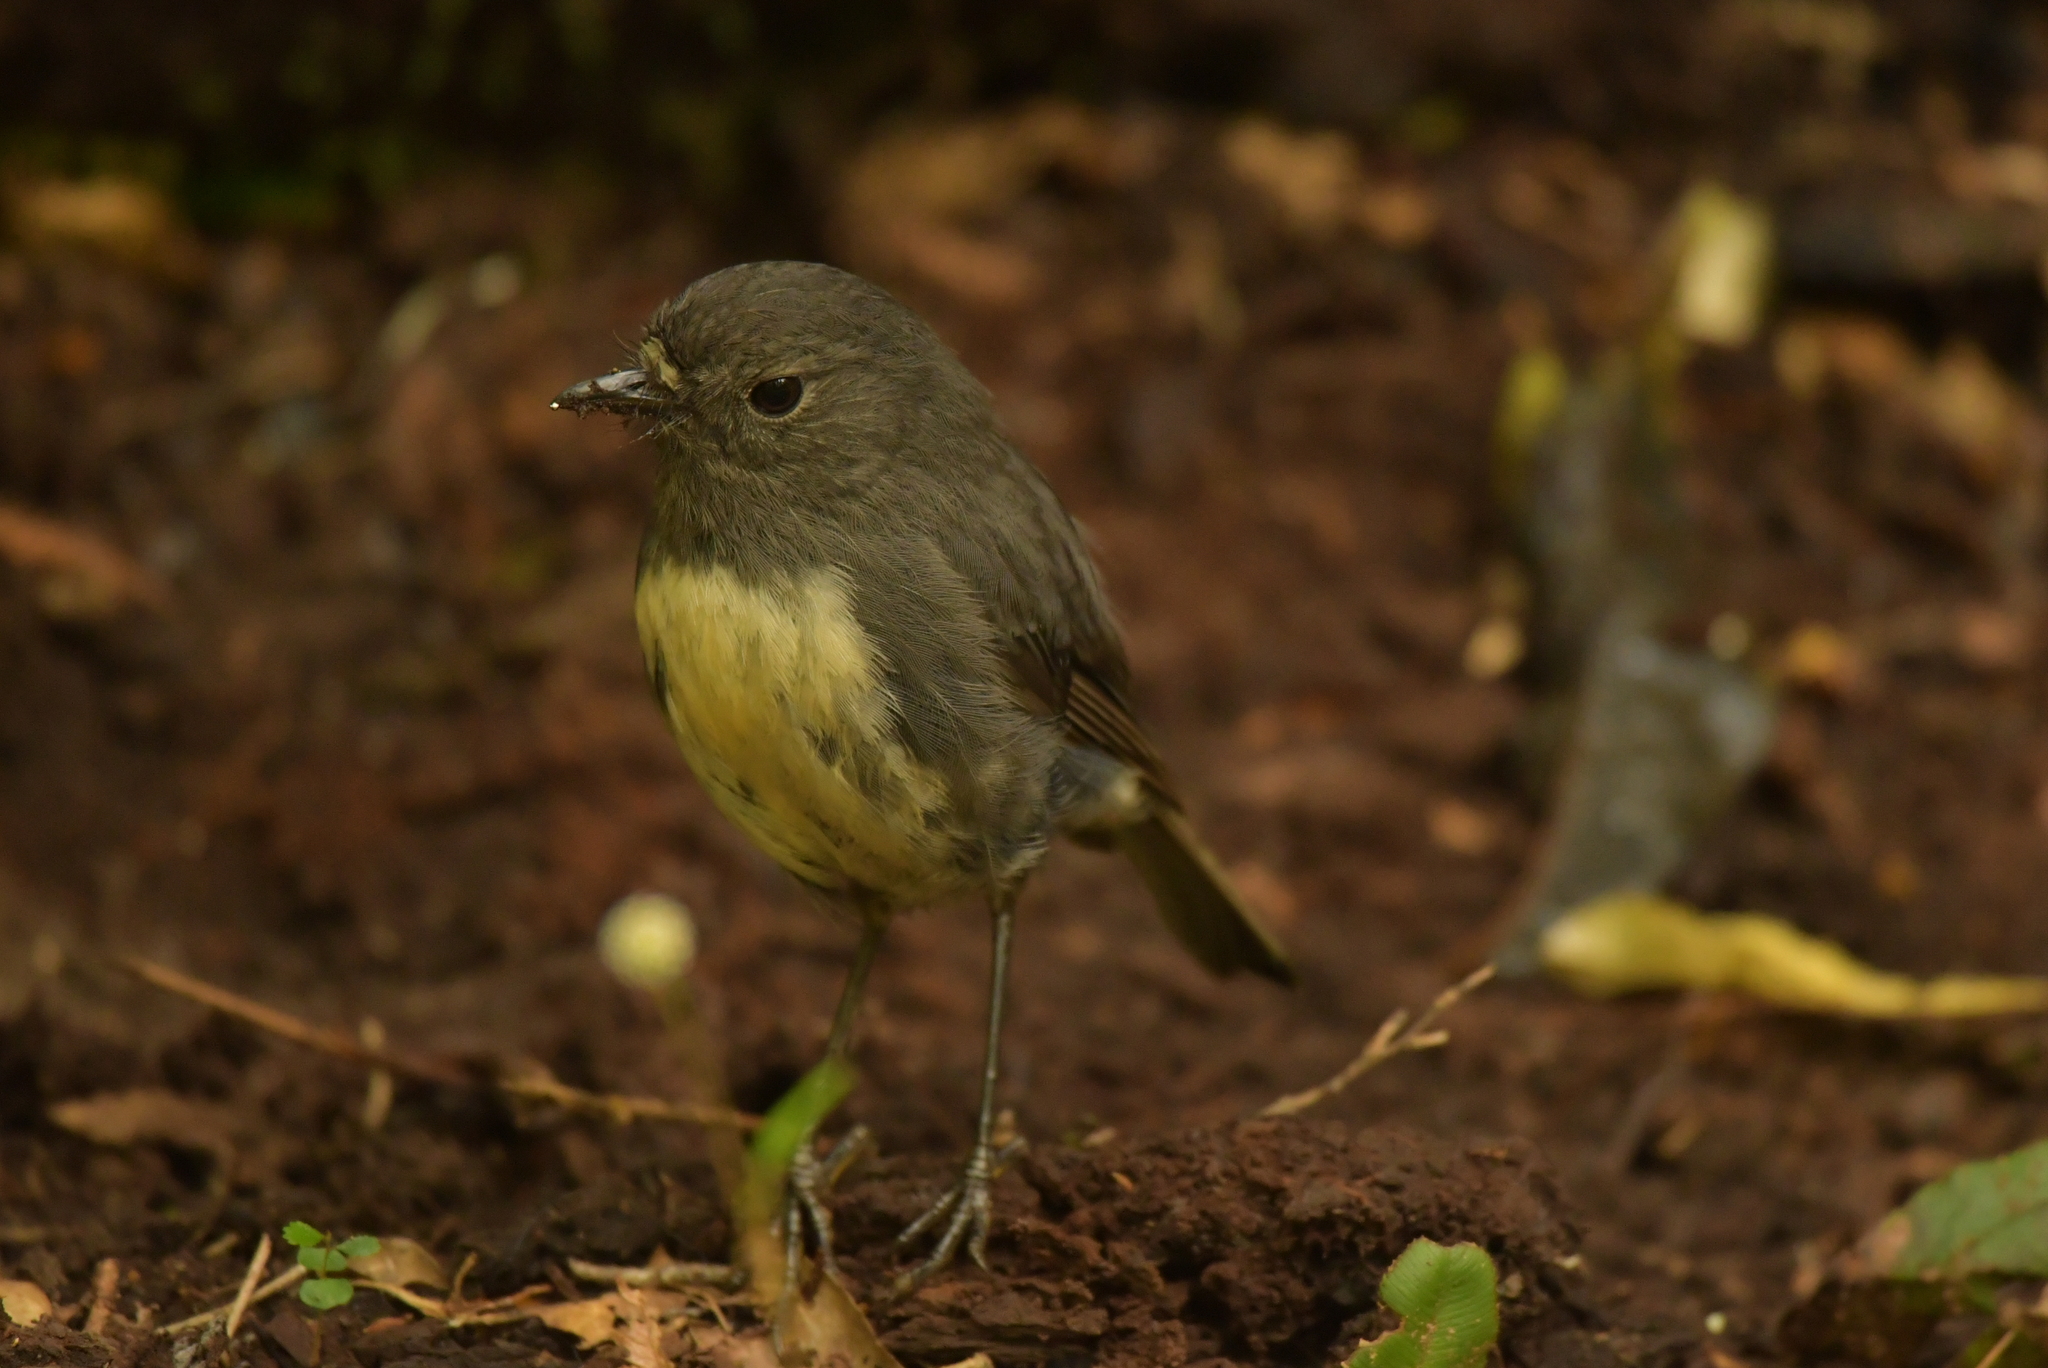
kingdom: Animalia
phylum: Chordata
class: Aves
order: Passeriformes
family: Petroicidae
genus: Petroica
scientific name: Petroica australis
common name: New zealand robin
